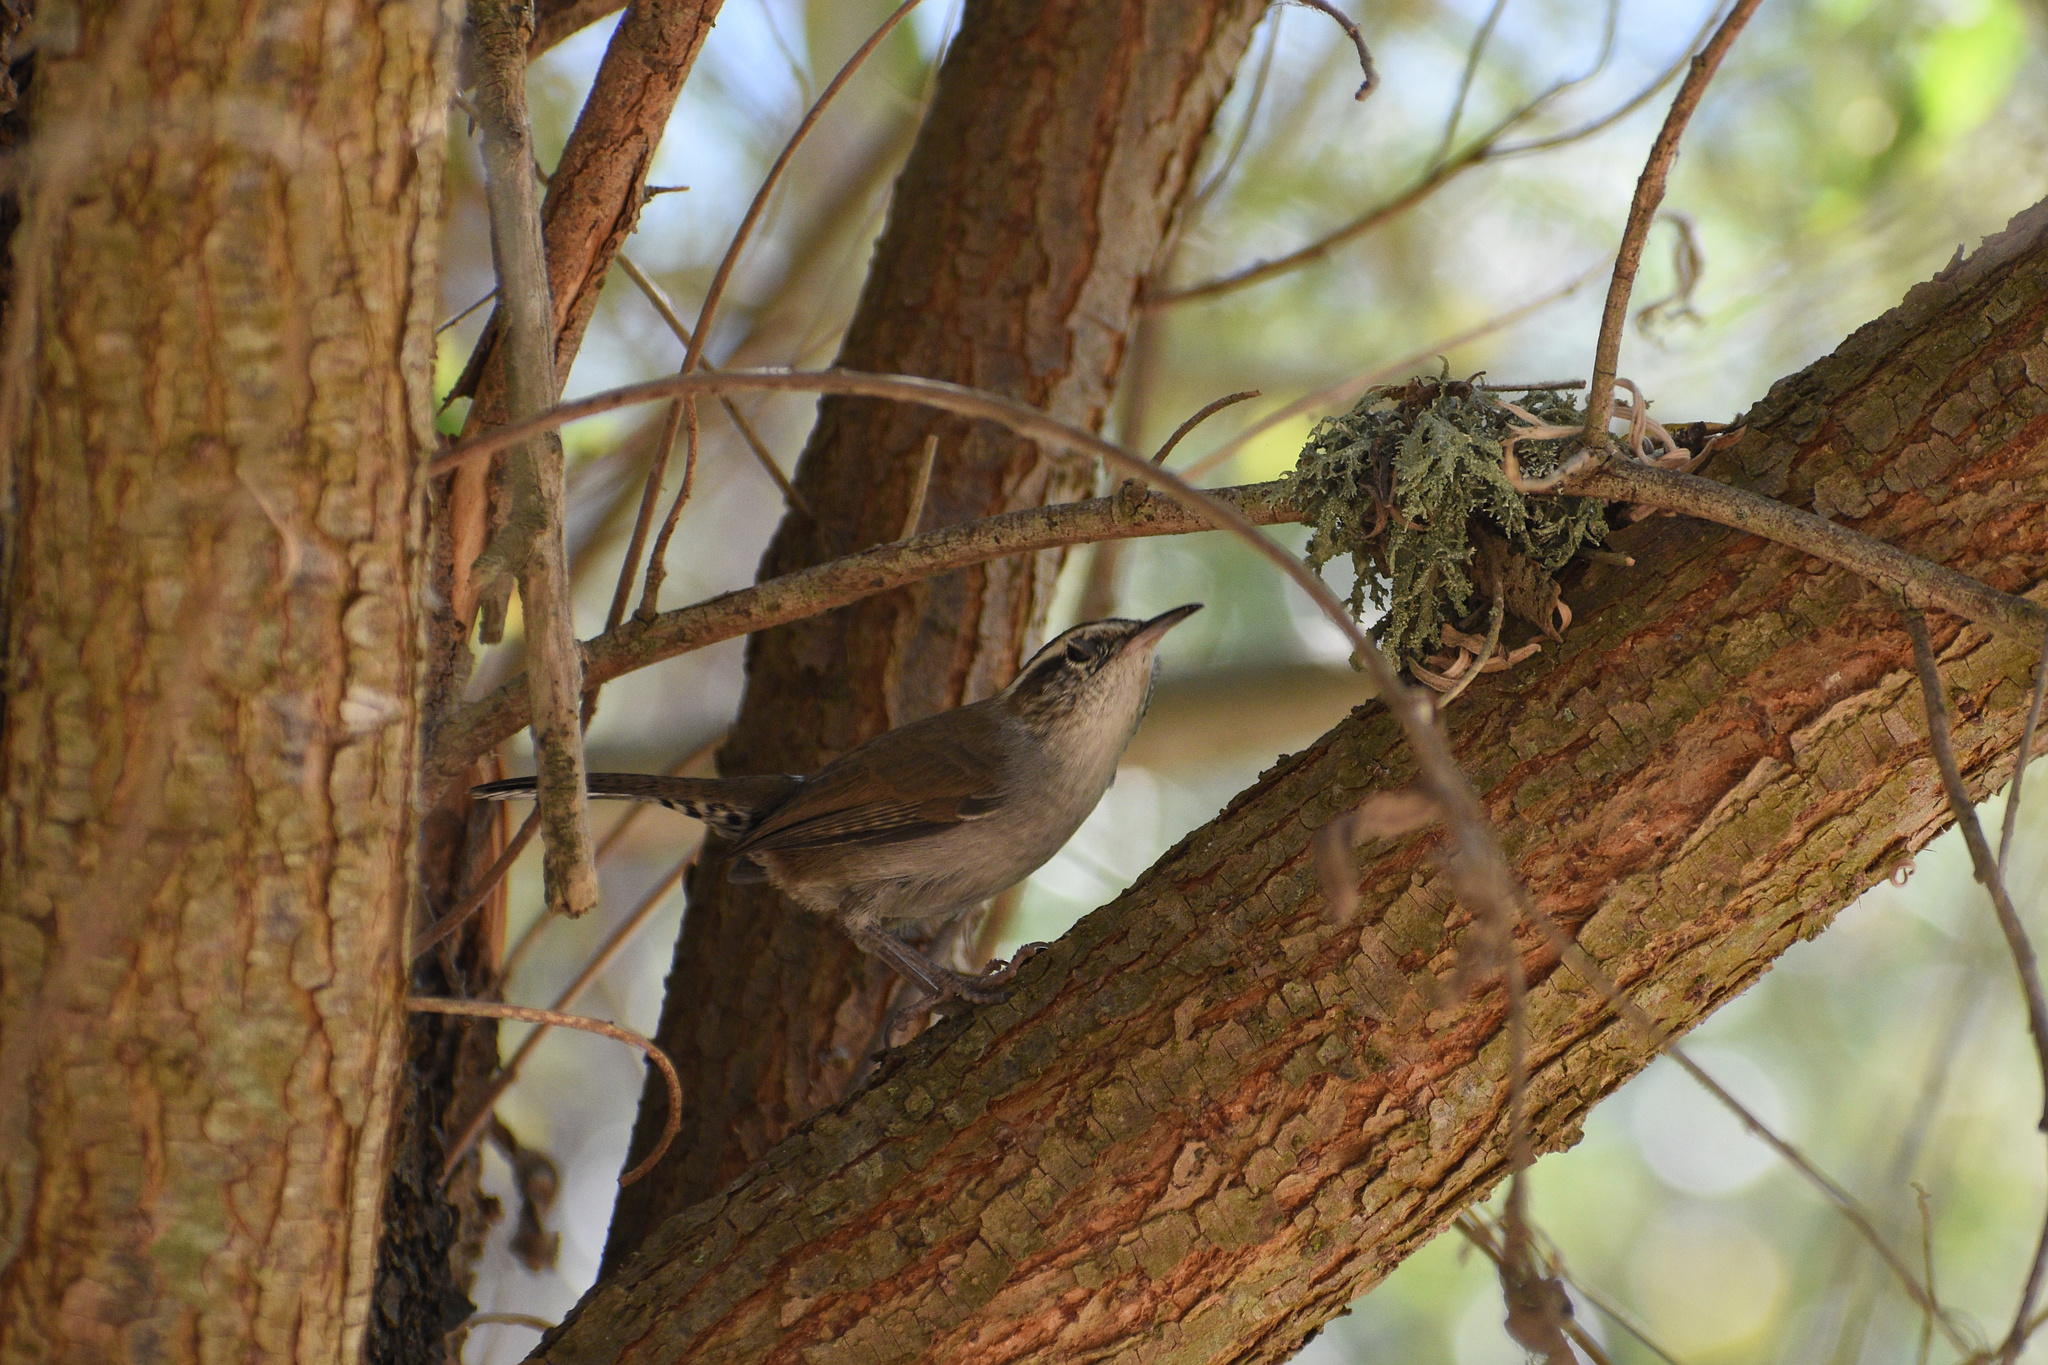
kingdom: Animalia
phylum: Chordata
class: Aves
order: Passeriformes
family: Troglodytidae
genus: Thryomanes
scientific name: Thryomanes bewickii
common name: Bewick's wren
